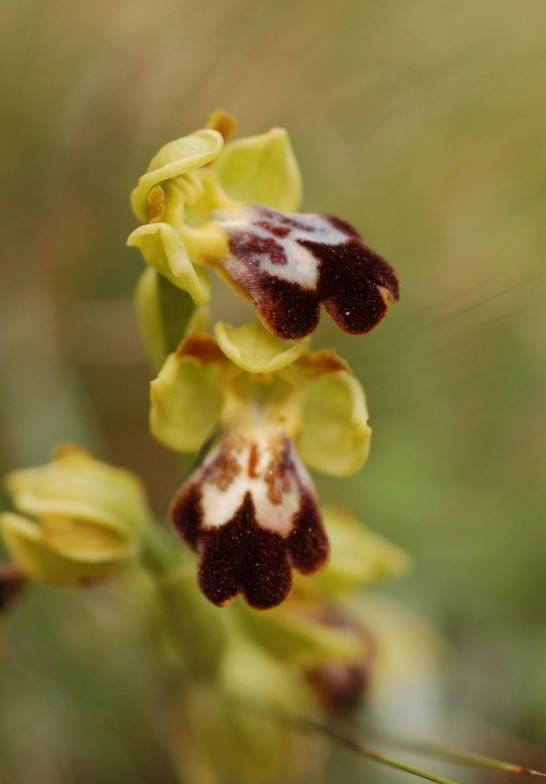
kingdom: Plantae
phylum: Tracheophyta
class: Liliopsida
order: Asparagales
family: Orchidaceae
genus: Ophrys
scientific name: Ophrys fusca
